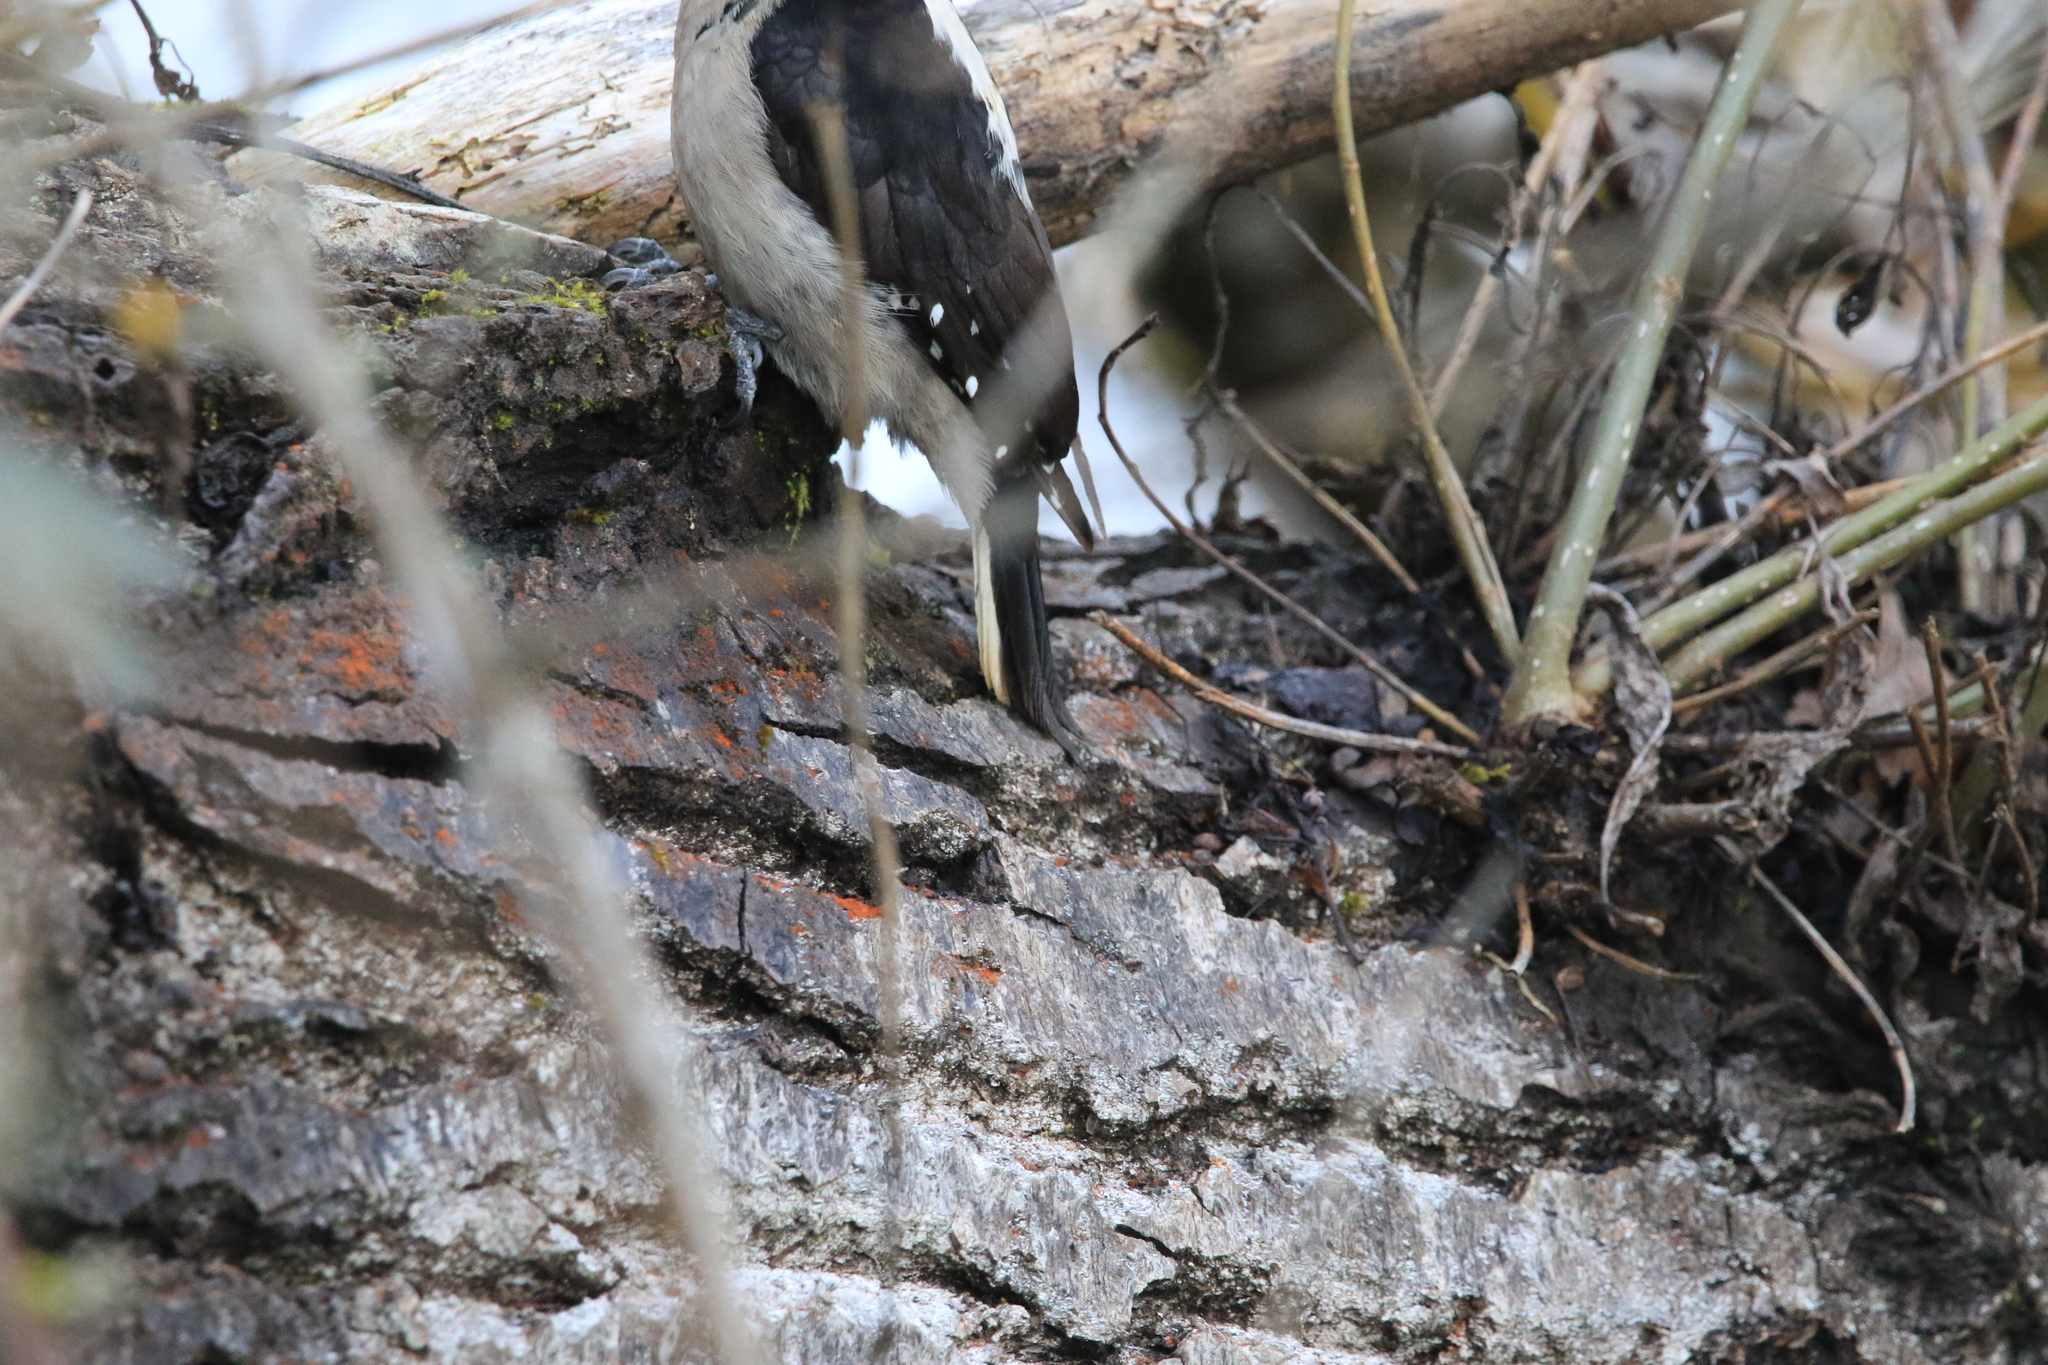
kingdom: Animalia
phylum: Chordata
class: Aves
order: Piciformes
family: Picidae
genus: Leuconotopicus
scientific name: Leuconotopicus villosus
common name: Hairy woodpecker
